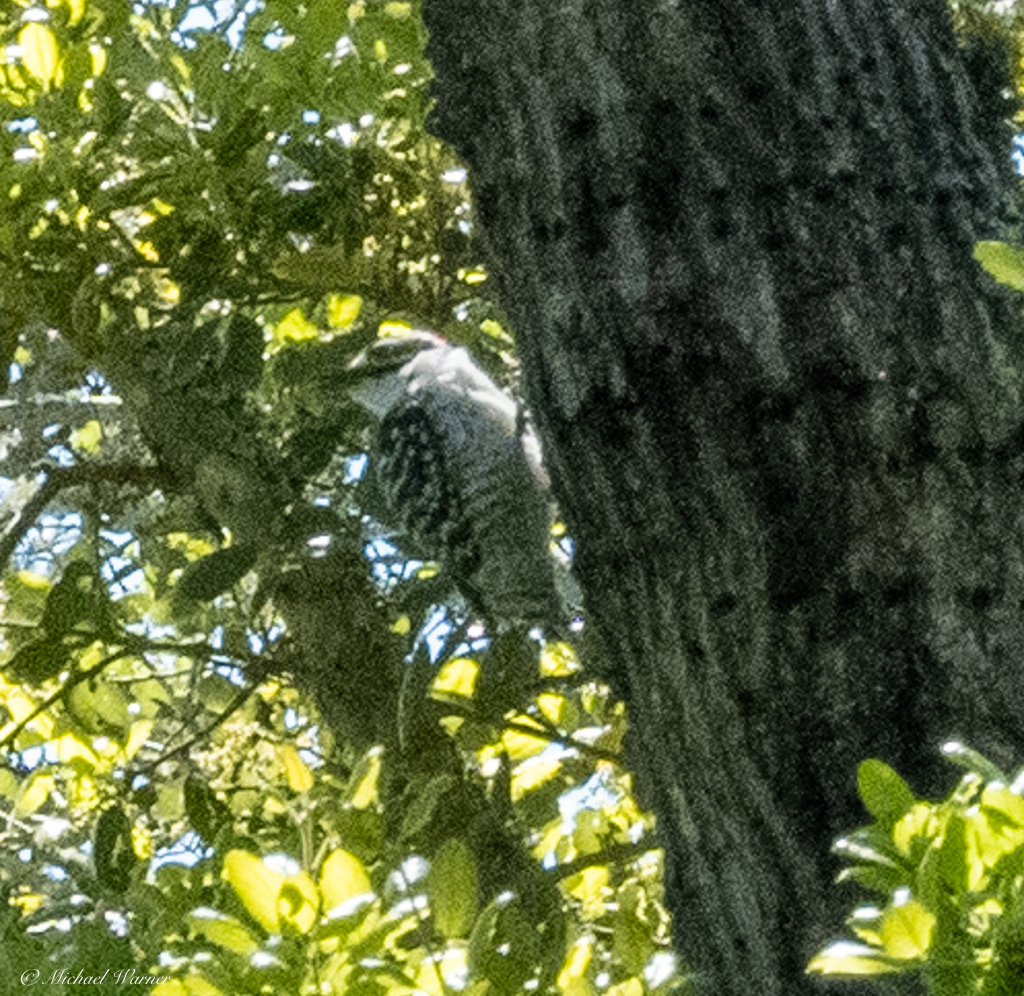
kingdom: Animalia
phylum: Chordata
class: Aves
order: Piciformes
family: Picidae
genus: Dryobates
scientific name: Dryobates nuttallii
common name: Nuttall's woodpecker
